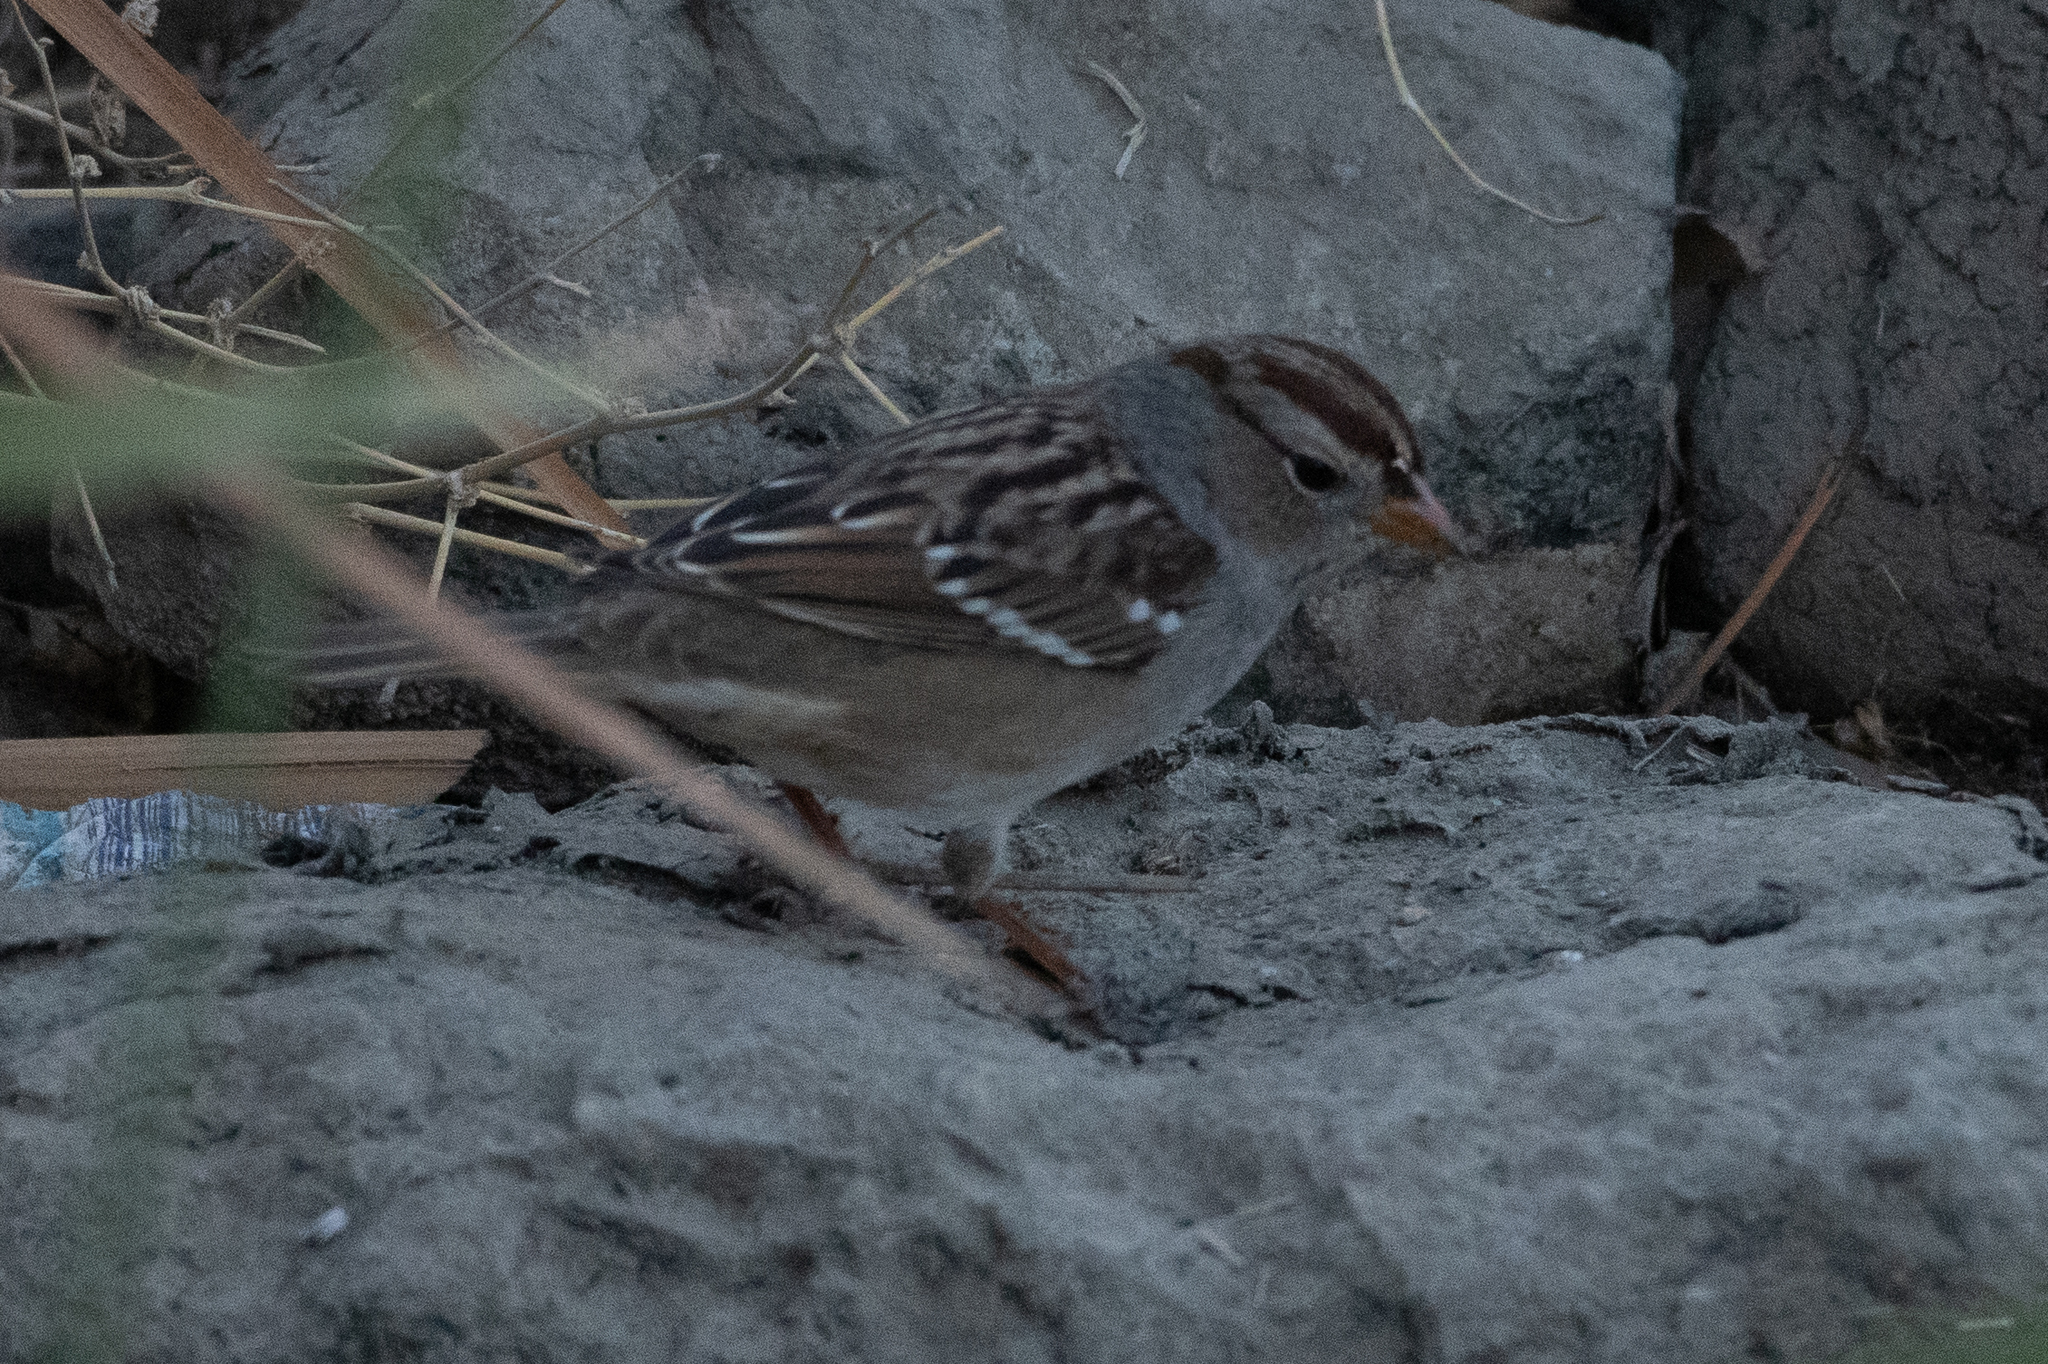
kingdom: Animalia
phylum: Chordata
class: Aves
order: Passeriformes
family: Passerellidae
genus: Zonotrichia
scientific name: Zonotrichia leucophrys
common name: White-crowned sparrow
